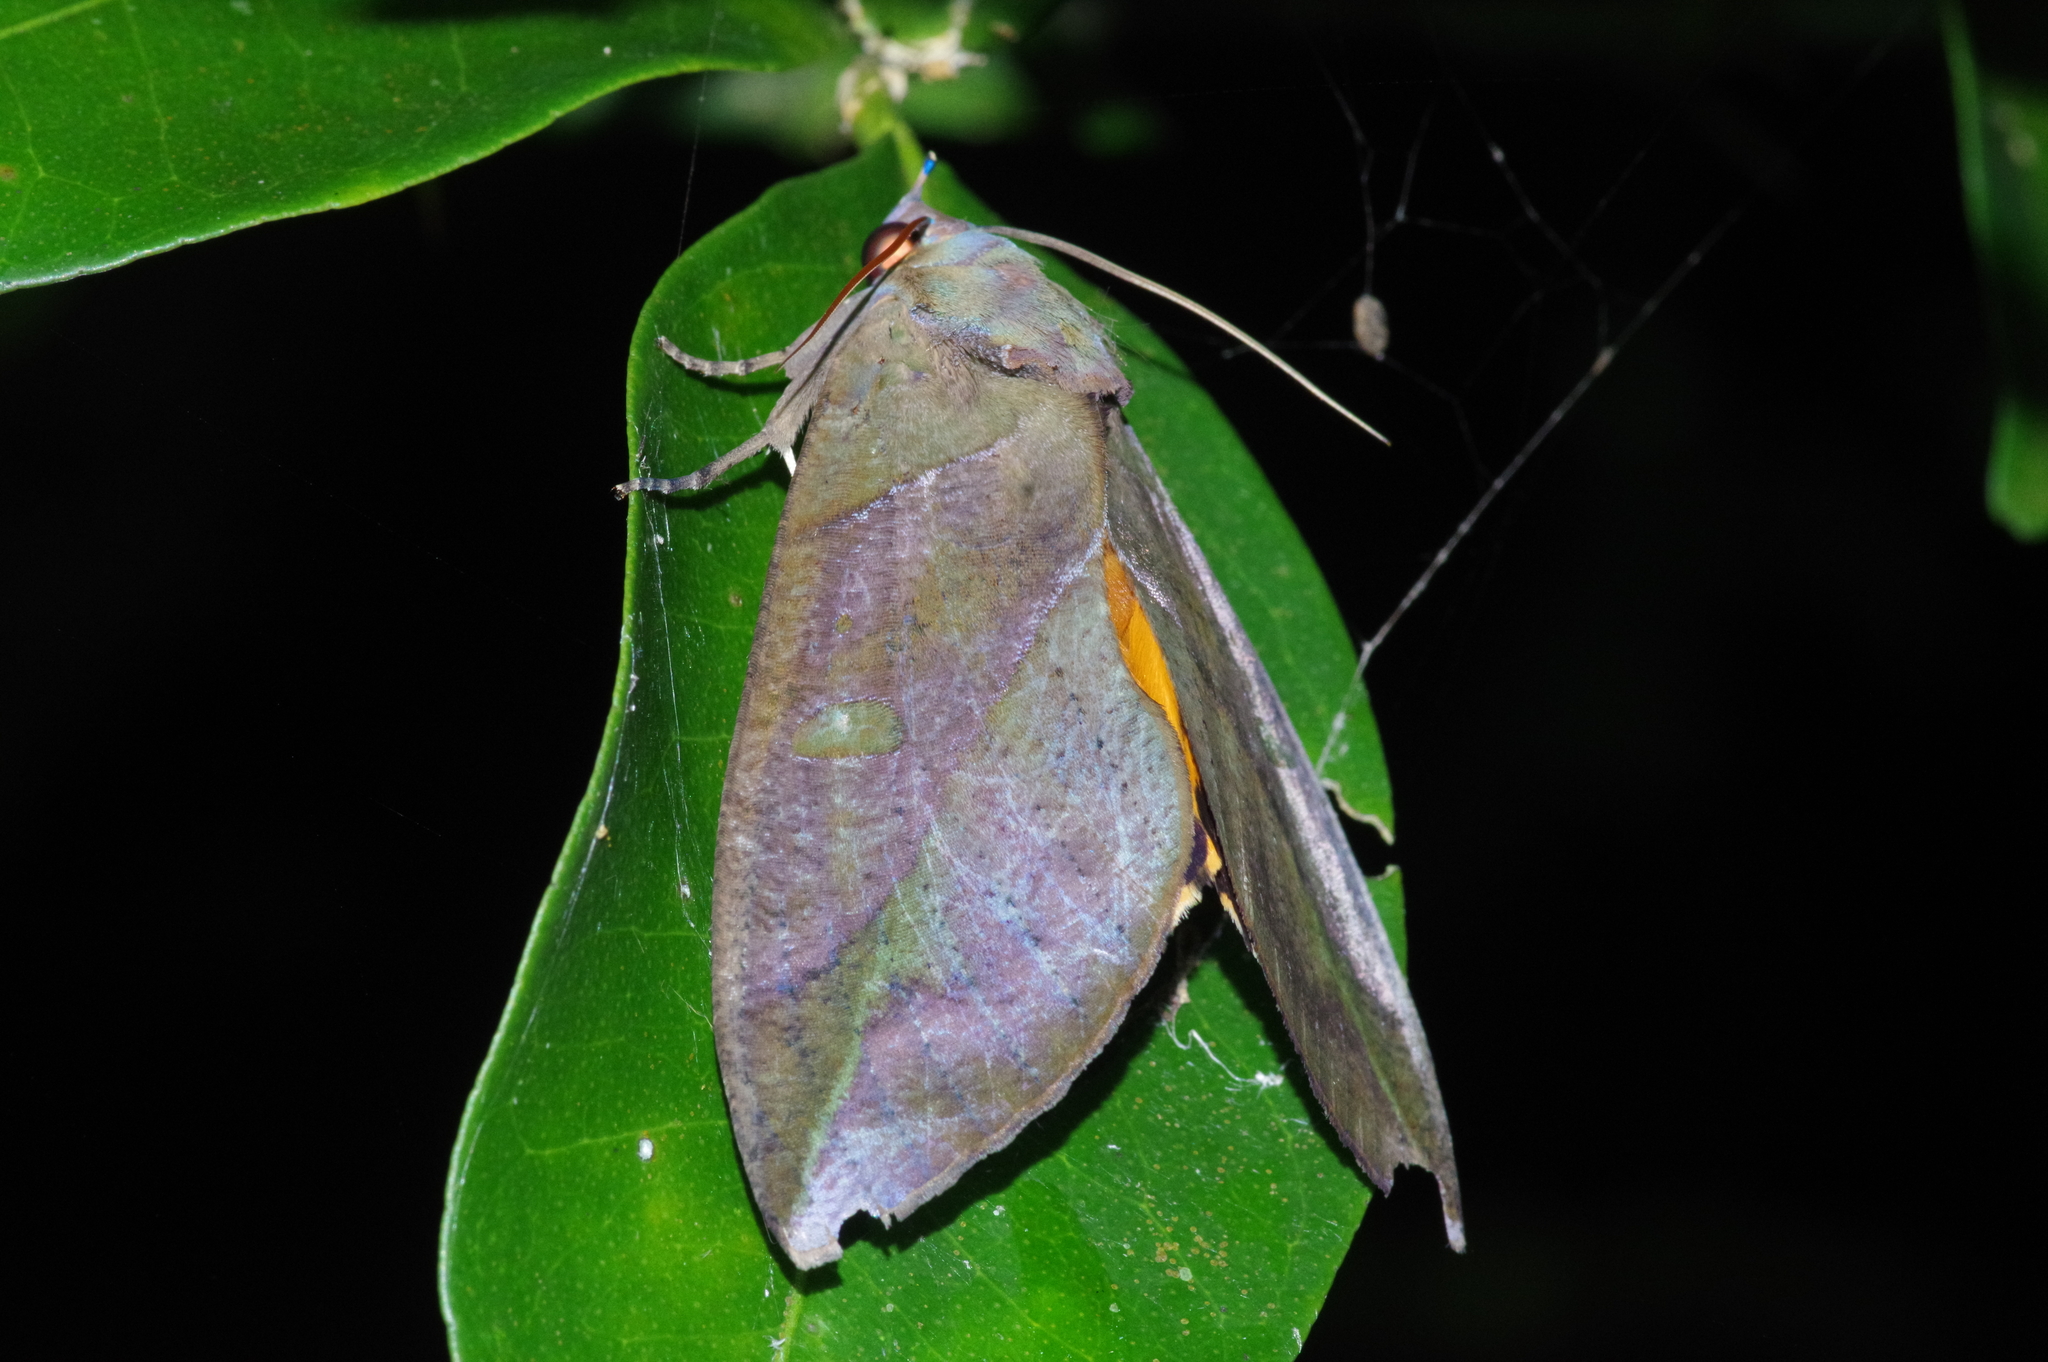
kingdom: Animalia
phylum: Arthropoda
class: Insecta
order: Lepidoptera
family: Erebidae
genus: Eudocima
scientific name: Eudocima phalonia
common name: Wasp
